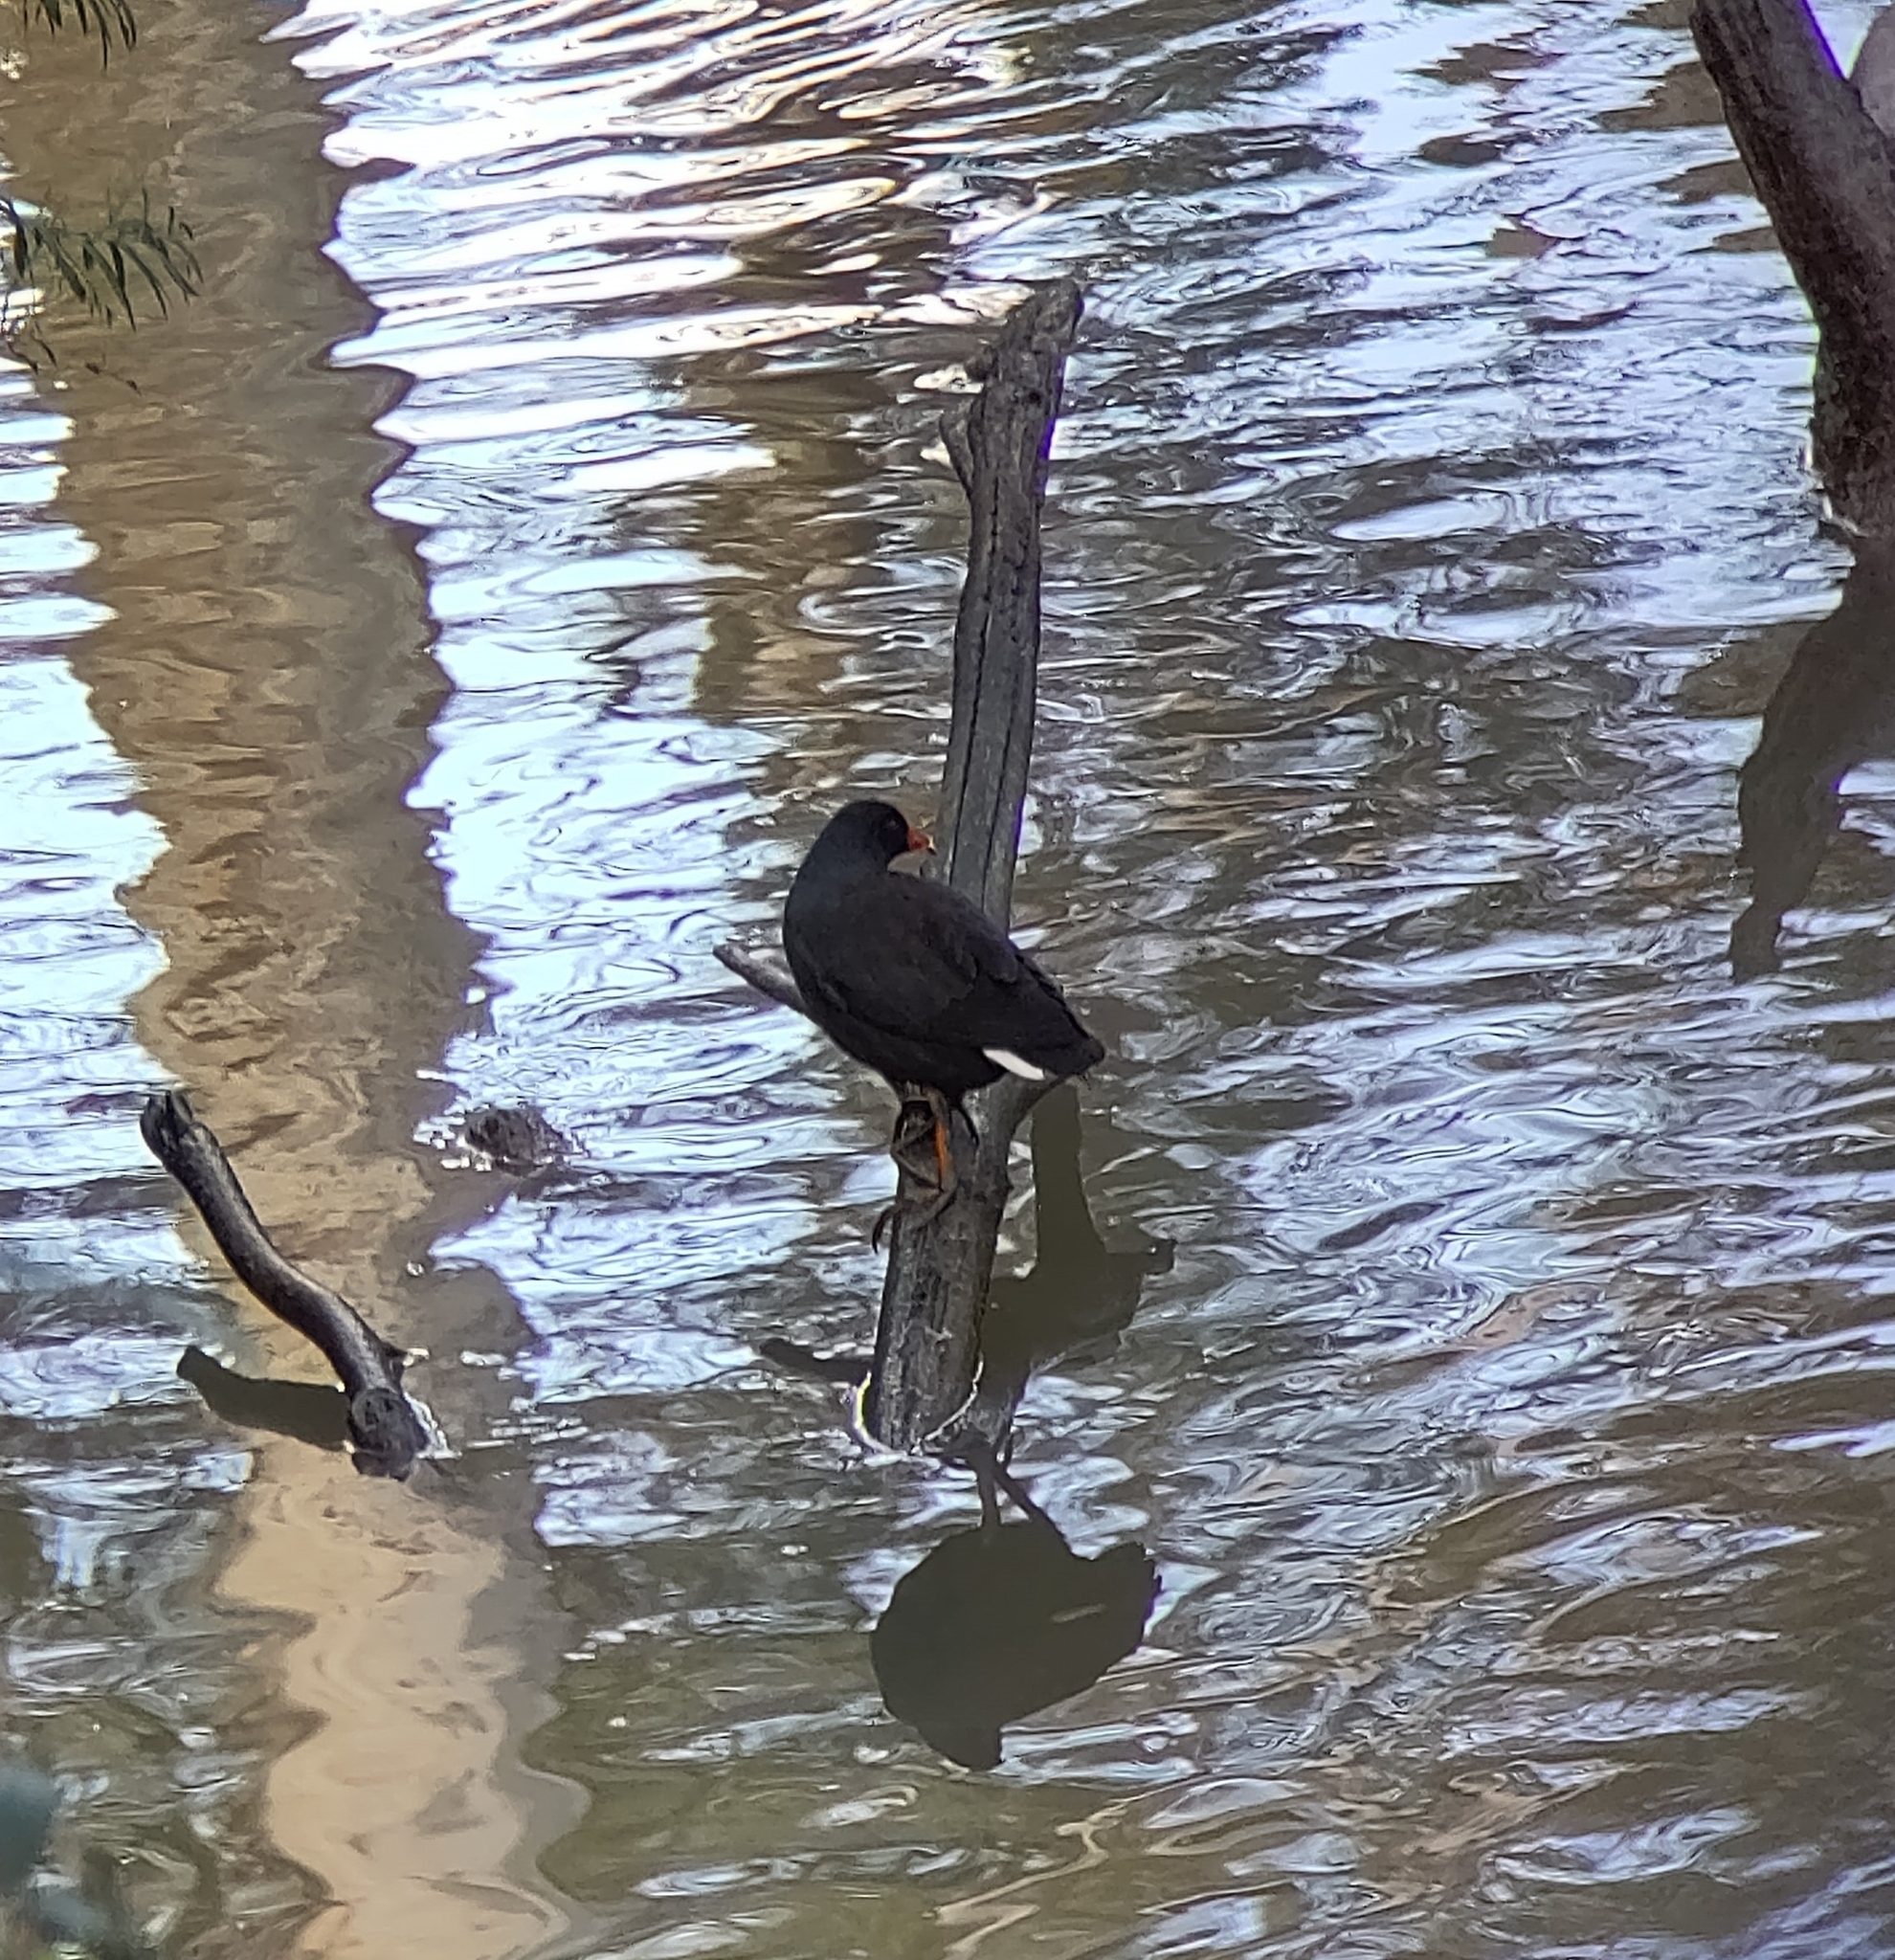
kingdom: Animalia
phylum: Chordata
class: Aves
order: Gruiformes
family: Rallidae
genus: Gallinula
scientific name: Gallinula tenebrosa
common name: Dusky moorhen
